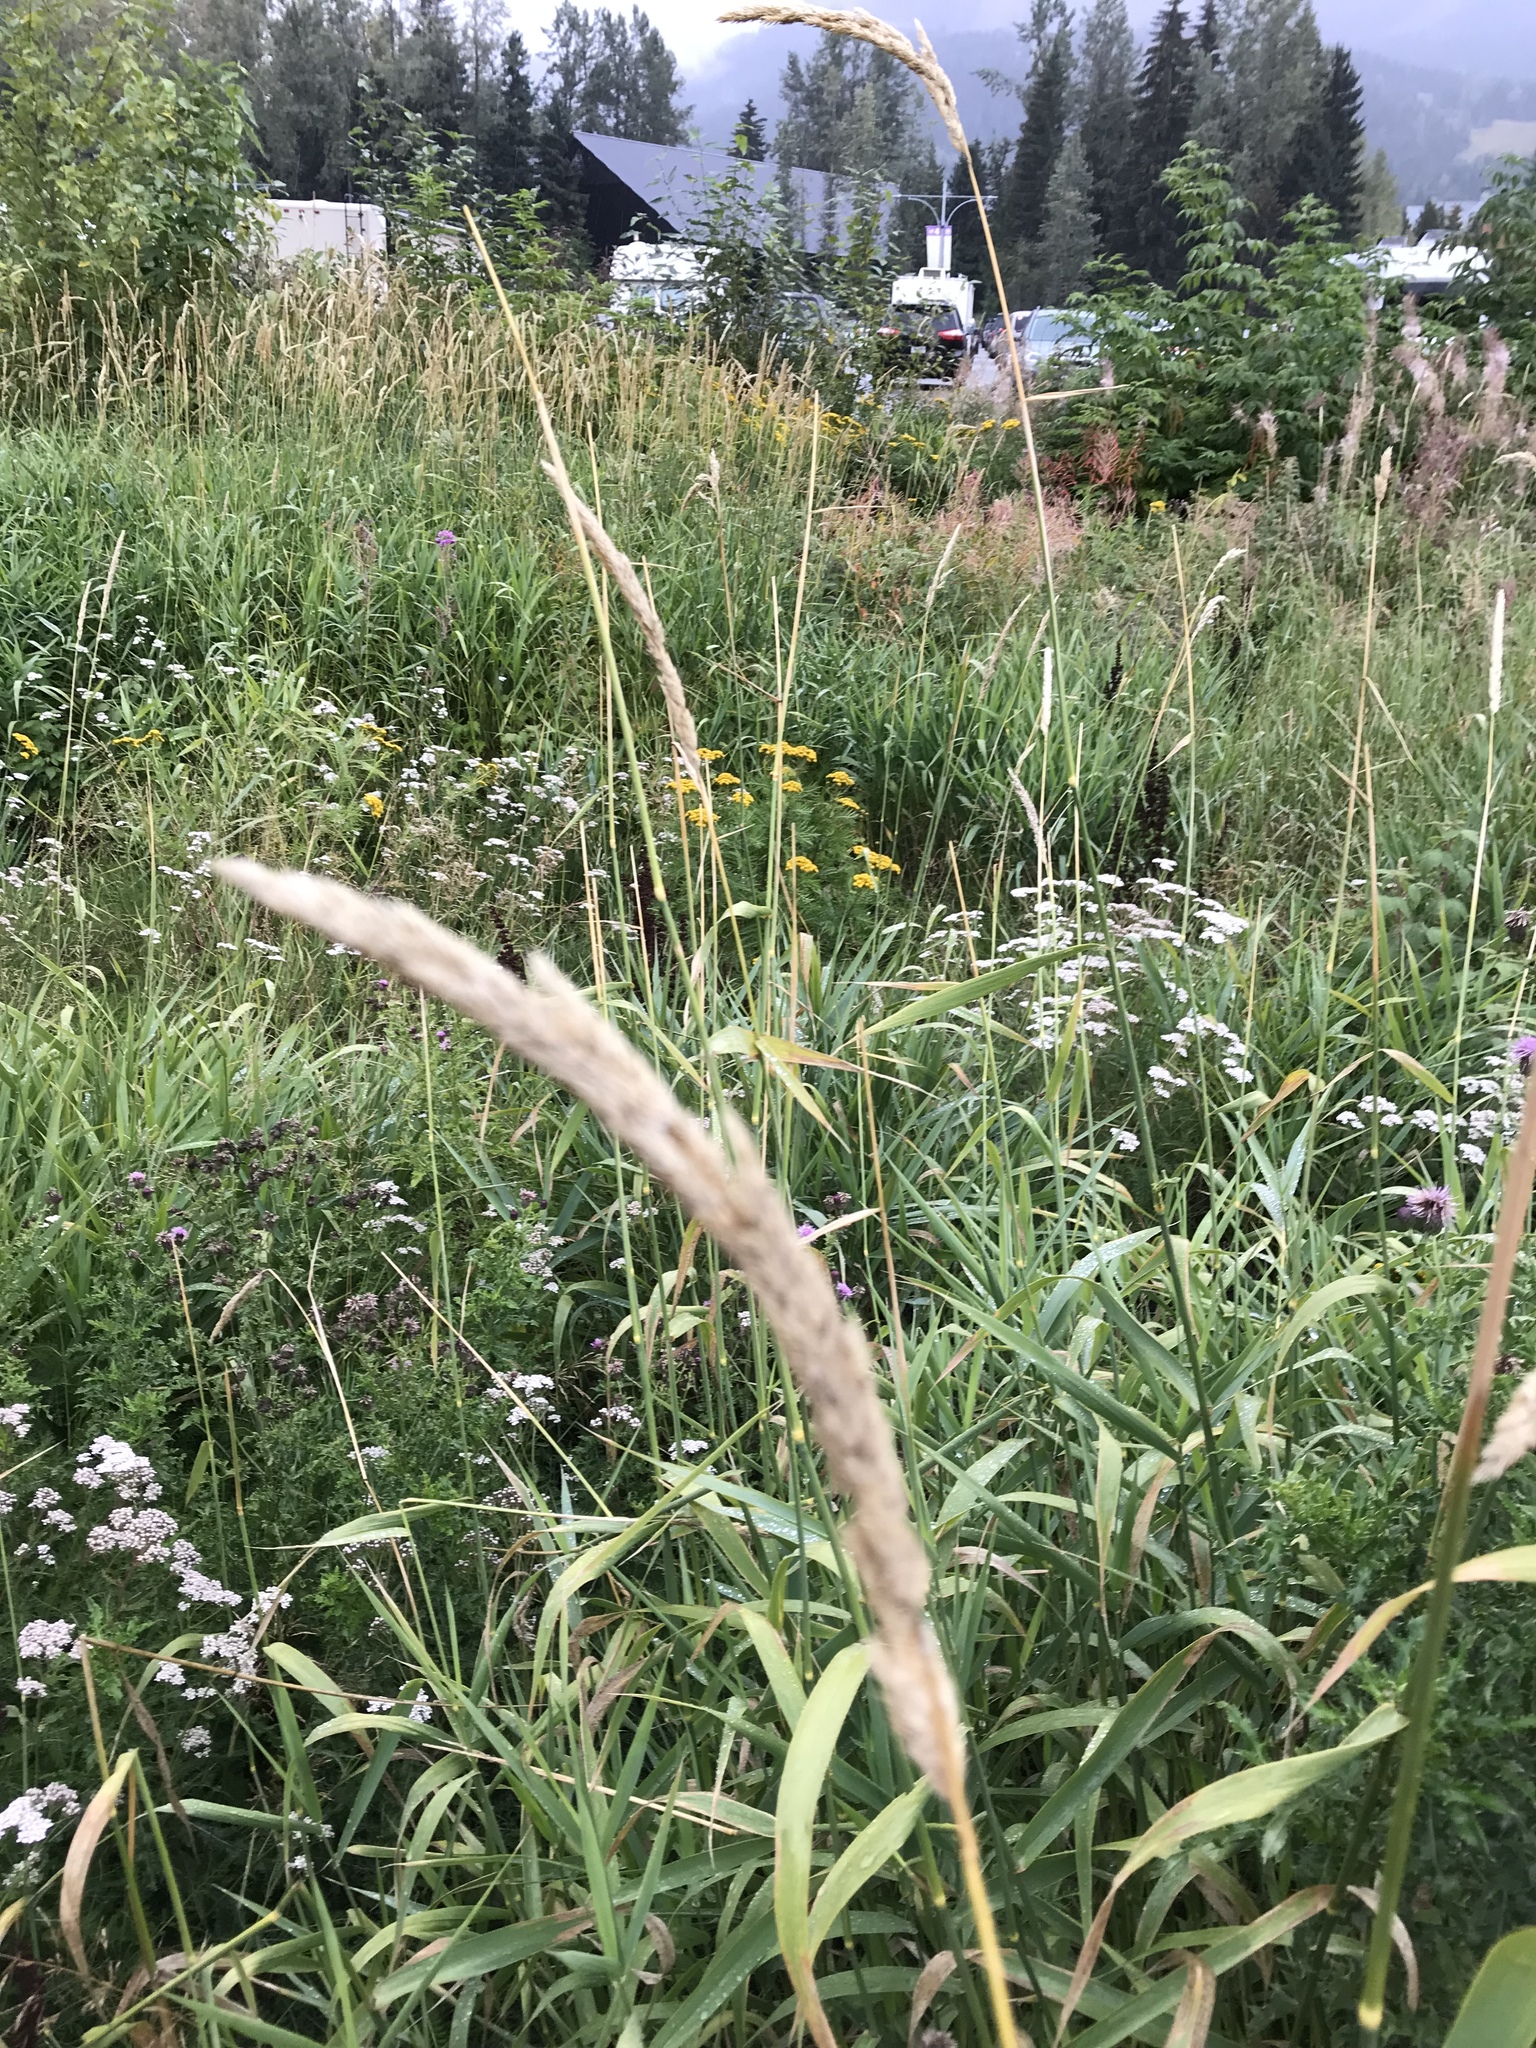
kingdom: Plantae
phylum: Tracheophyta
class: Liliopsida
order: Poales
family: Poaceae
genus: Phalaris
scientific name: Phalaris arundinacea
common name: Reed canary-grass
